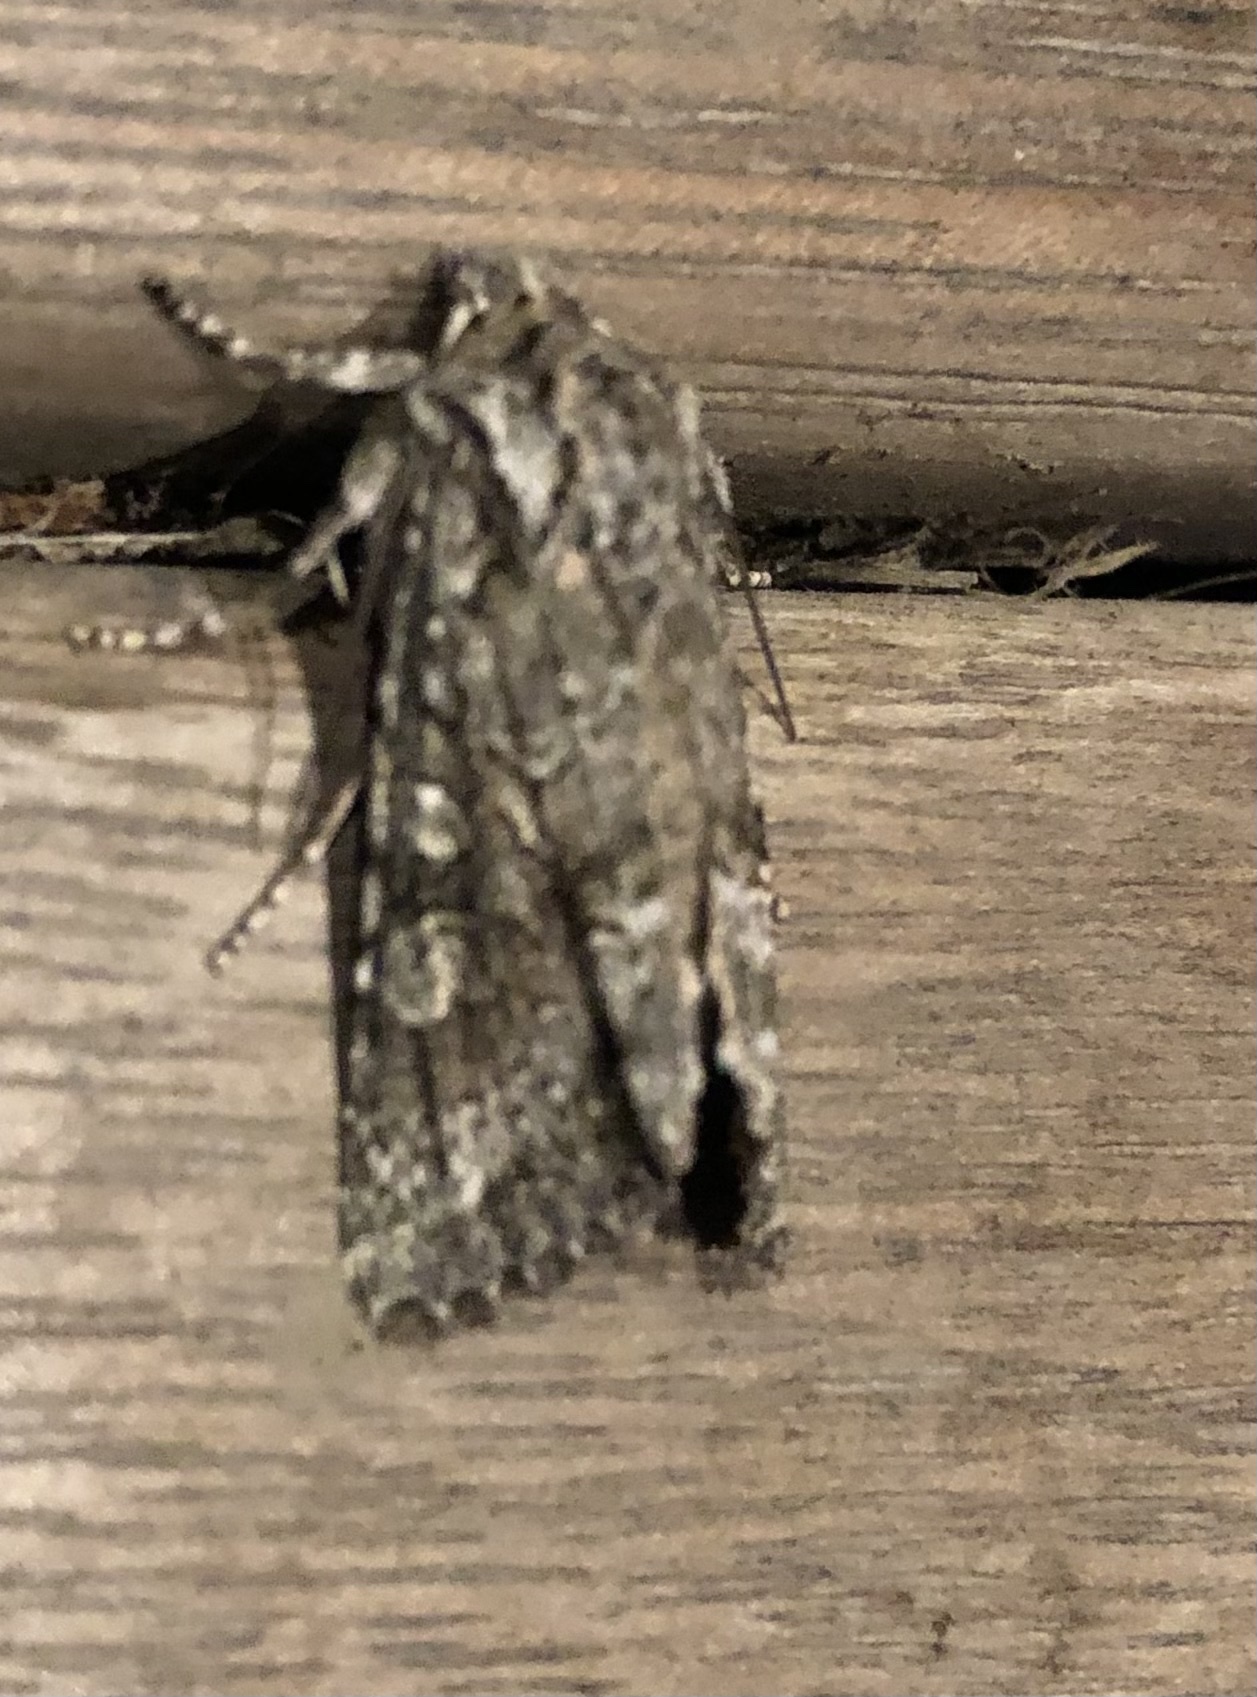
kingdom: Animalia
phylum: Arthropoda
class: Insecta
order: Lepidoptera
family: Noctuidae
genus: Ichneutica
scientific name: Ichneutica mutans
